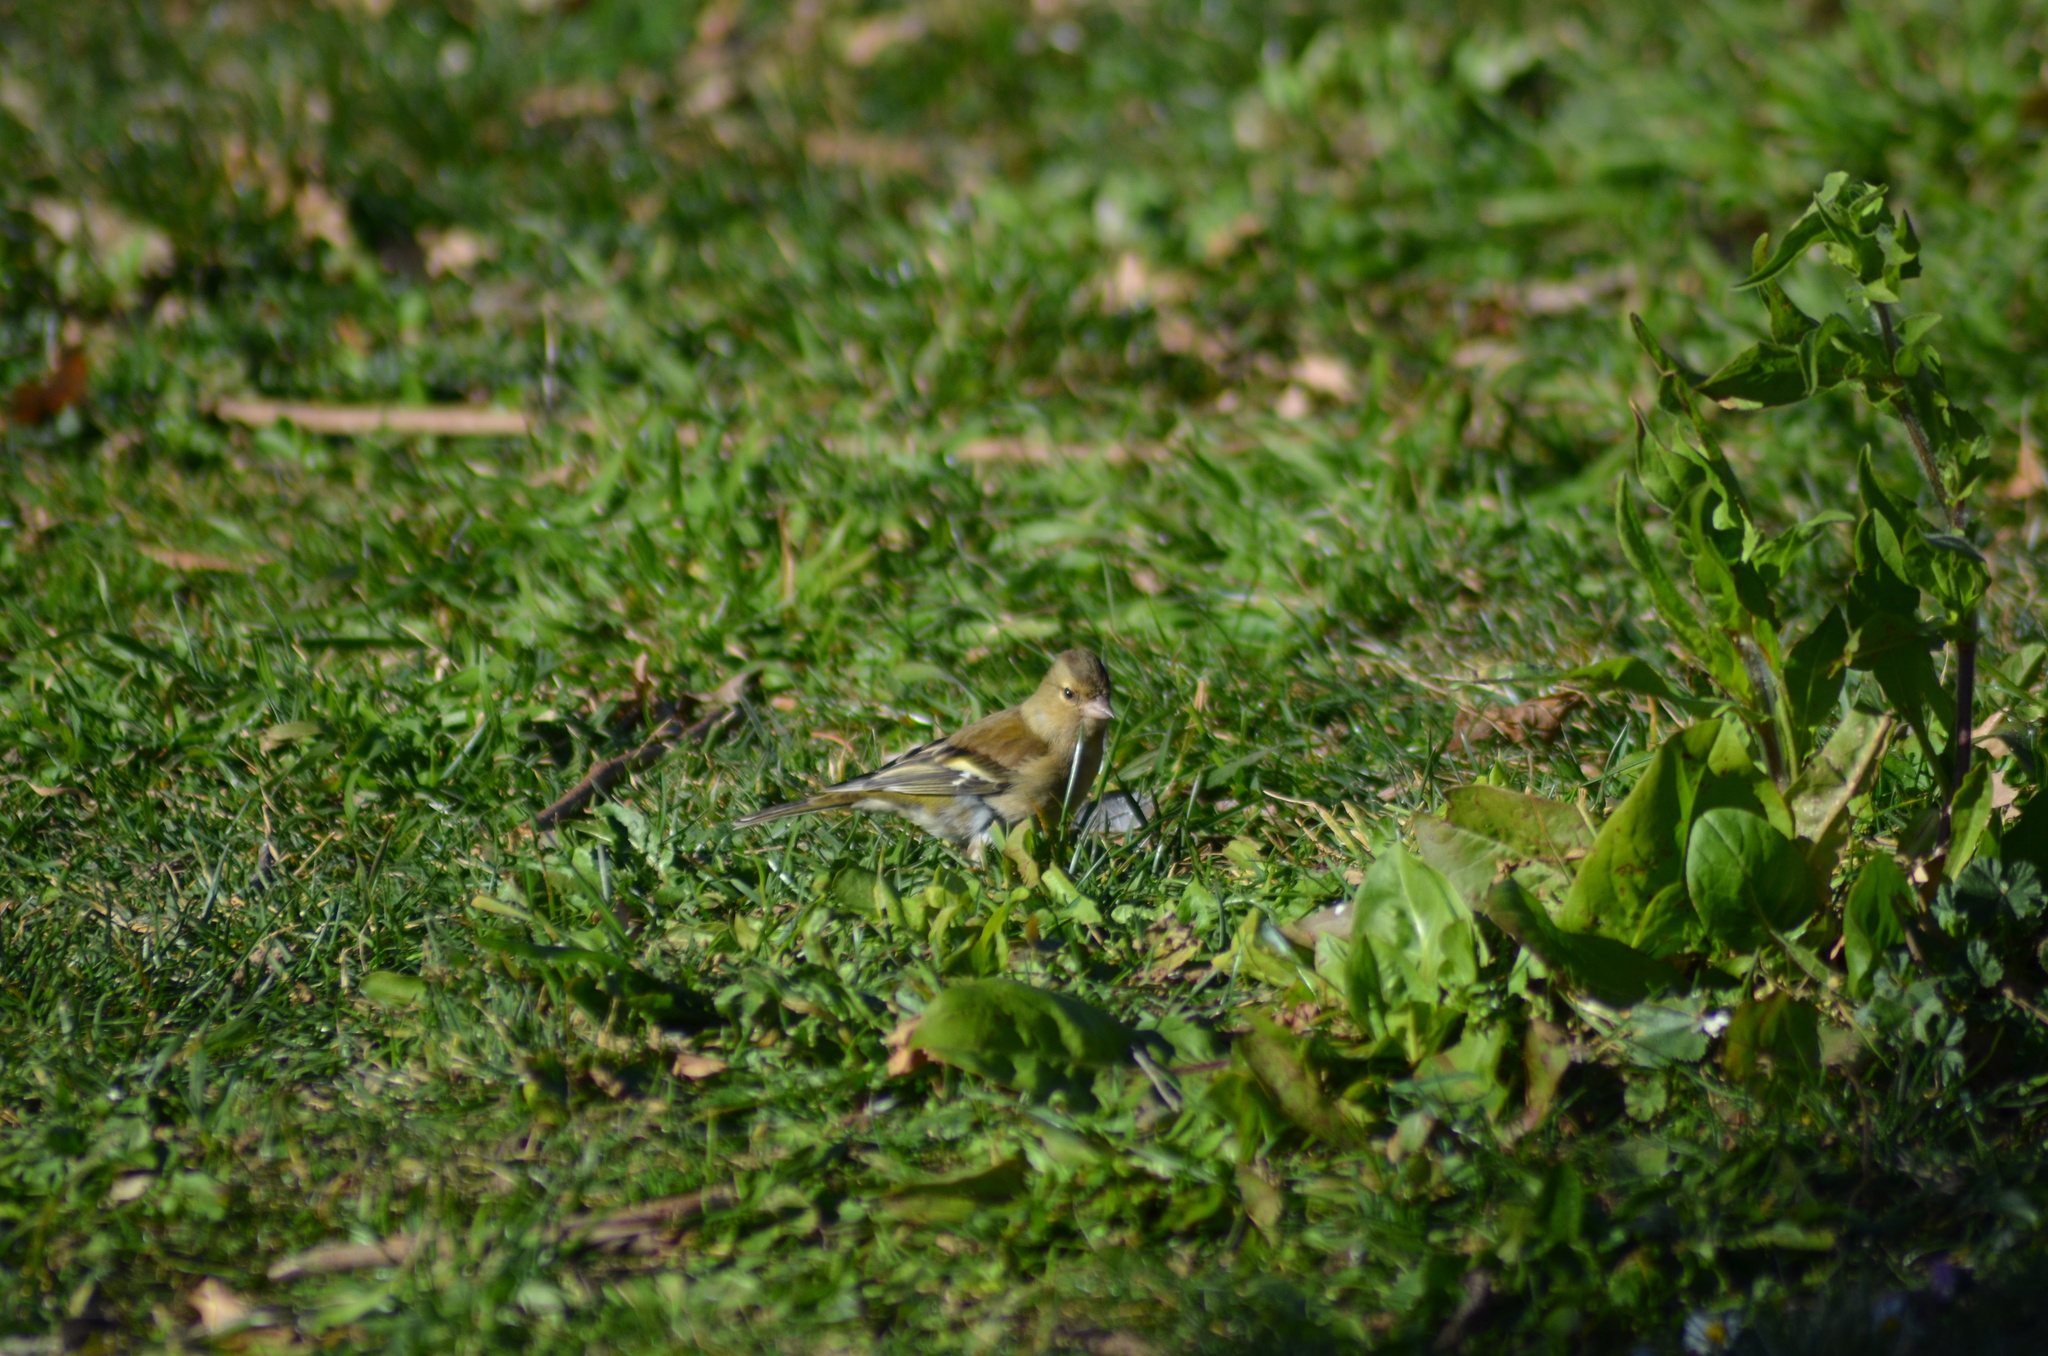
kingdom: Animalia
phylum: Chordata
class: Aves
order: Passeriformes
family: Fringillidae
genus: Fringilla
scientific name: Fringilla coelebs
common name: Common chaffinch
